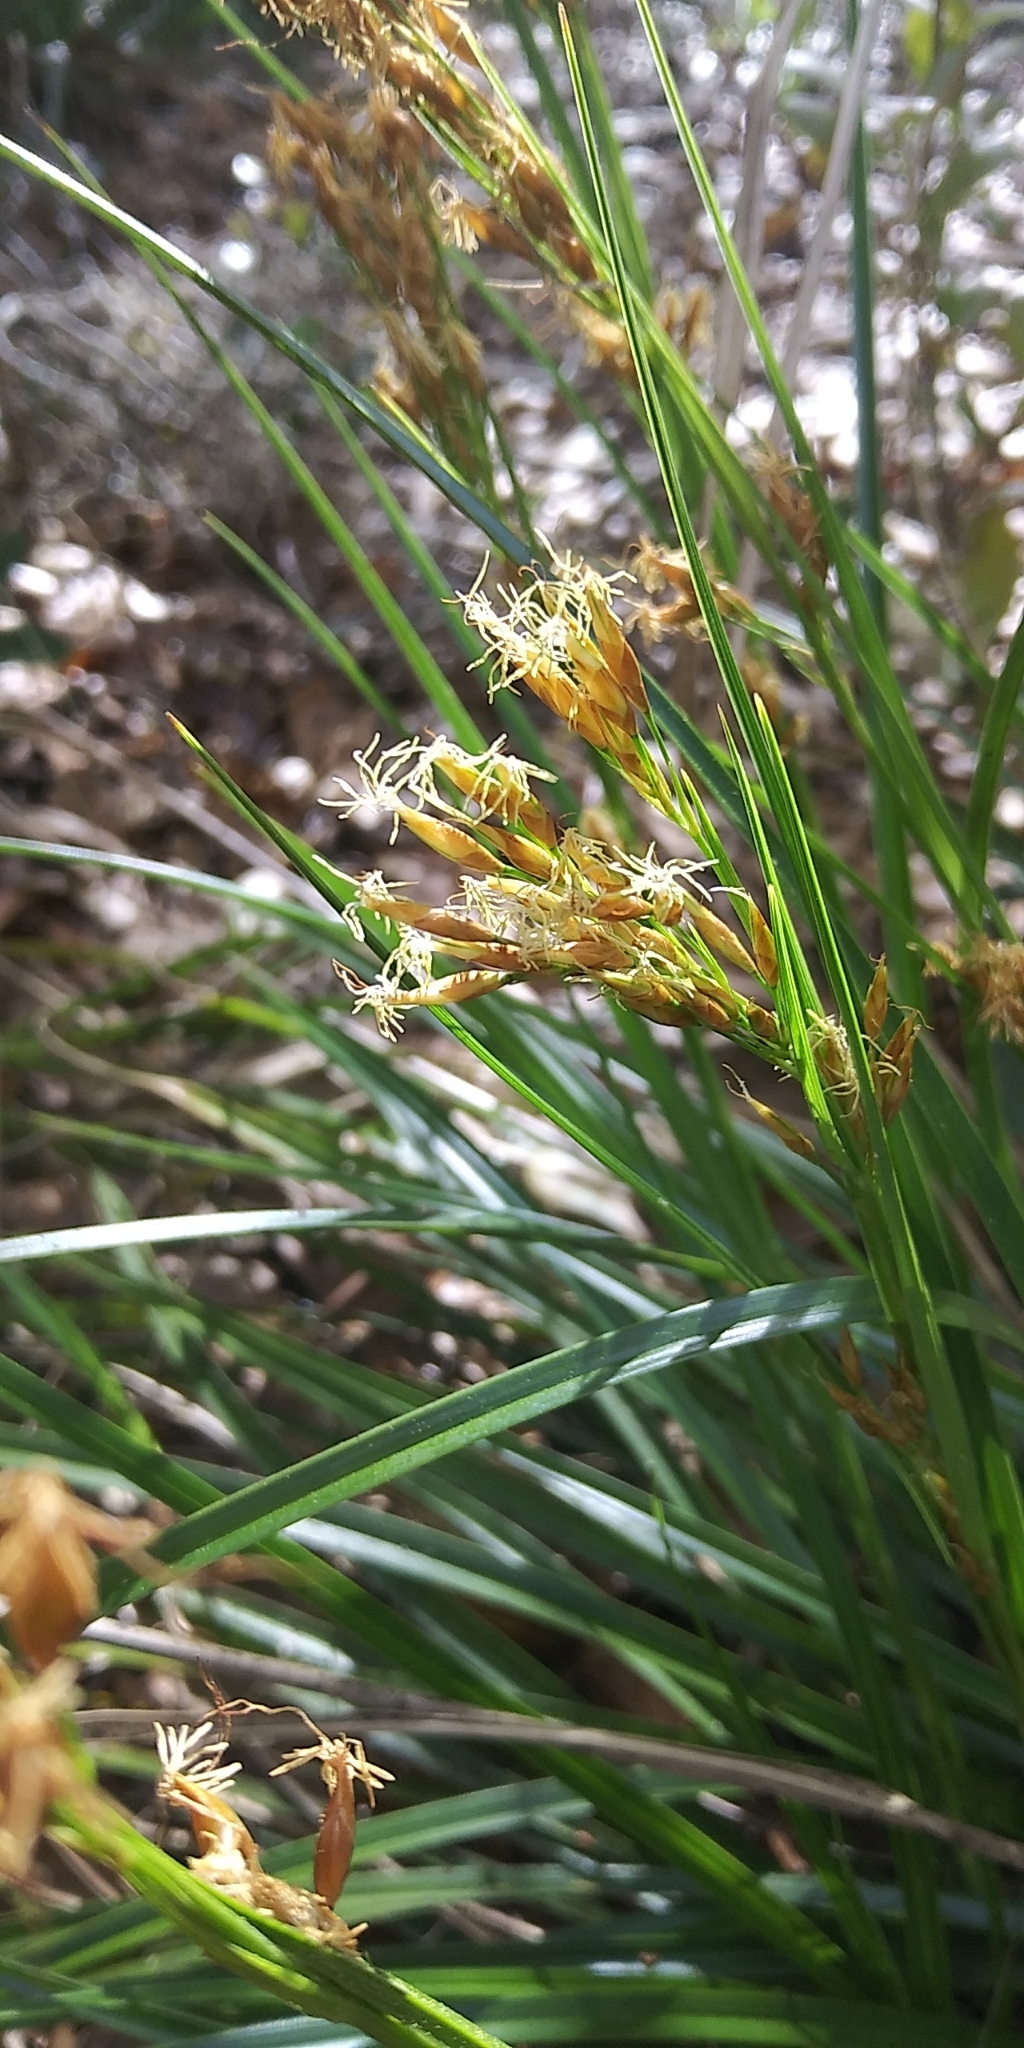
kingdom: Plantae
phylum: Tracheophyta
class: Liliopsida
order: Poales
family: Cyperaceae
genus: Rhynchospora
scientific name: Rhynchospora megalocarpa
